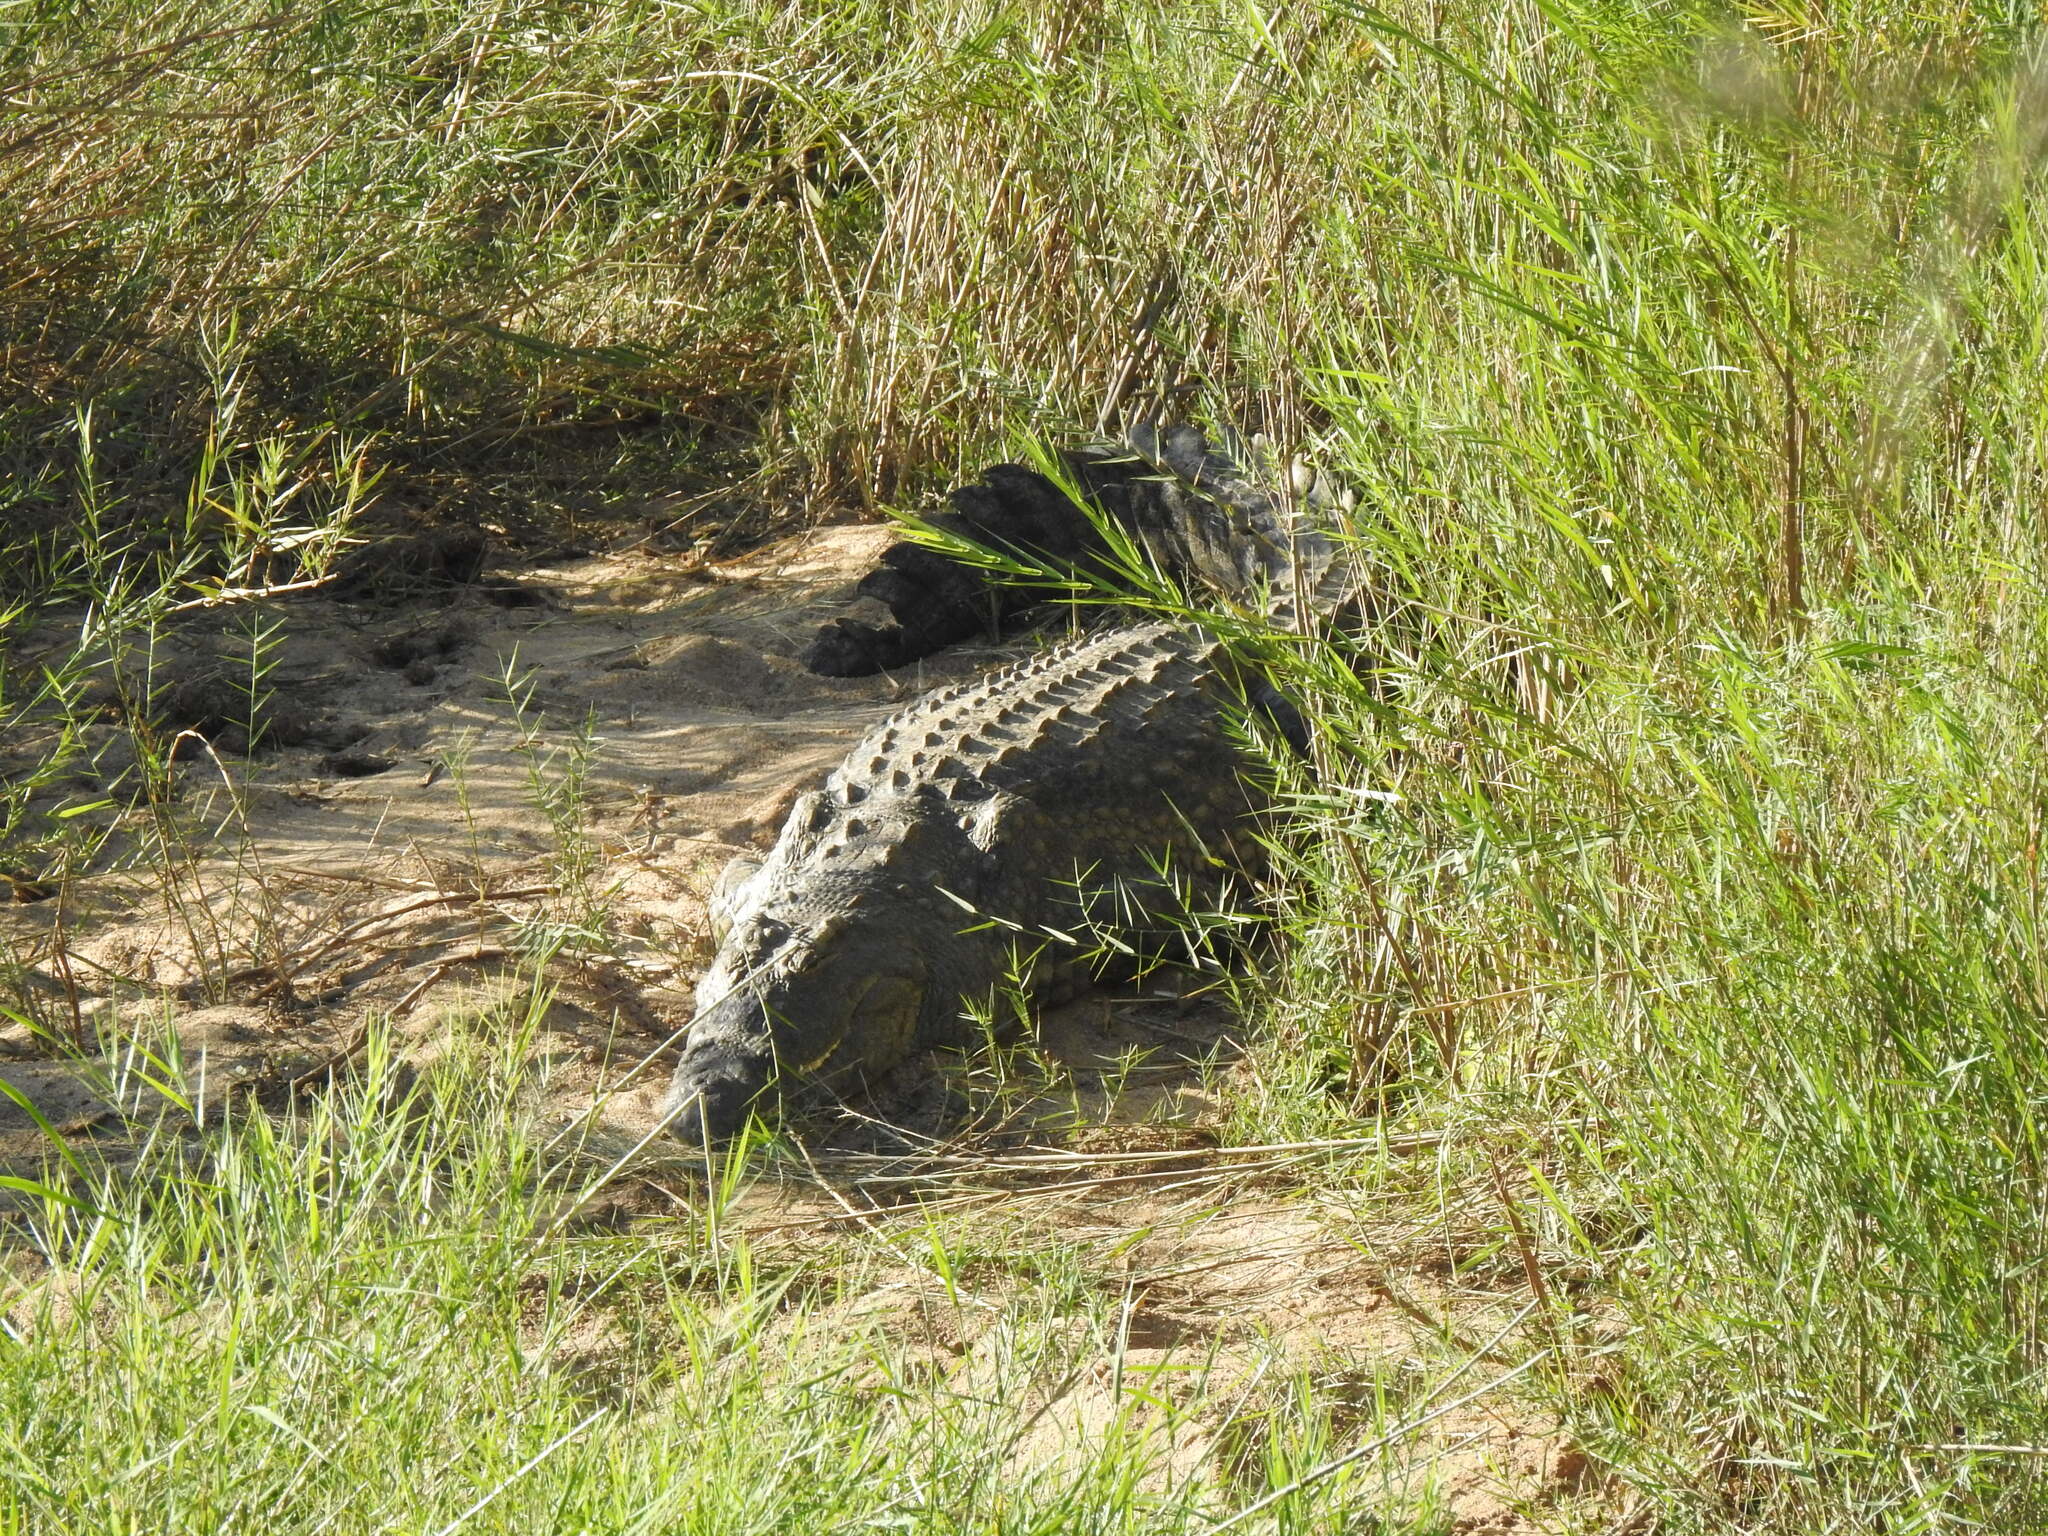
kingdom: Animalia
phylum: Chordata
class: Crocodylia
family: Crocodylidae
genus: Crocodylus
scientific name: Crocodylus niloticus
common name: Nile crocodile
